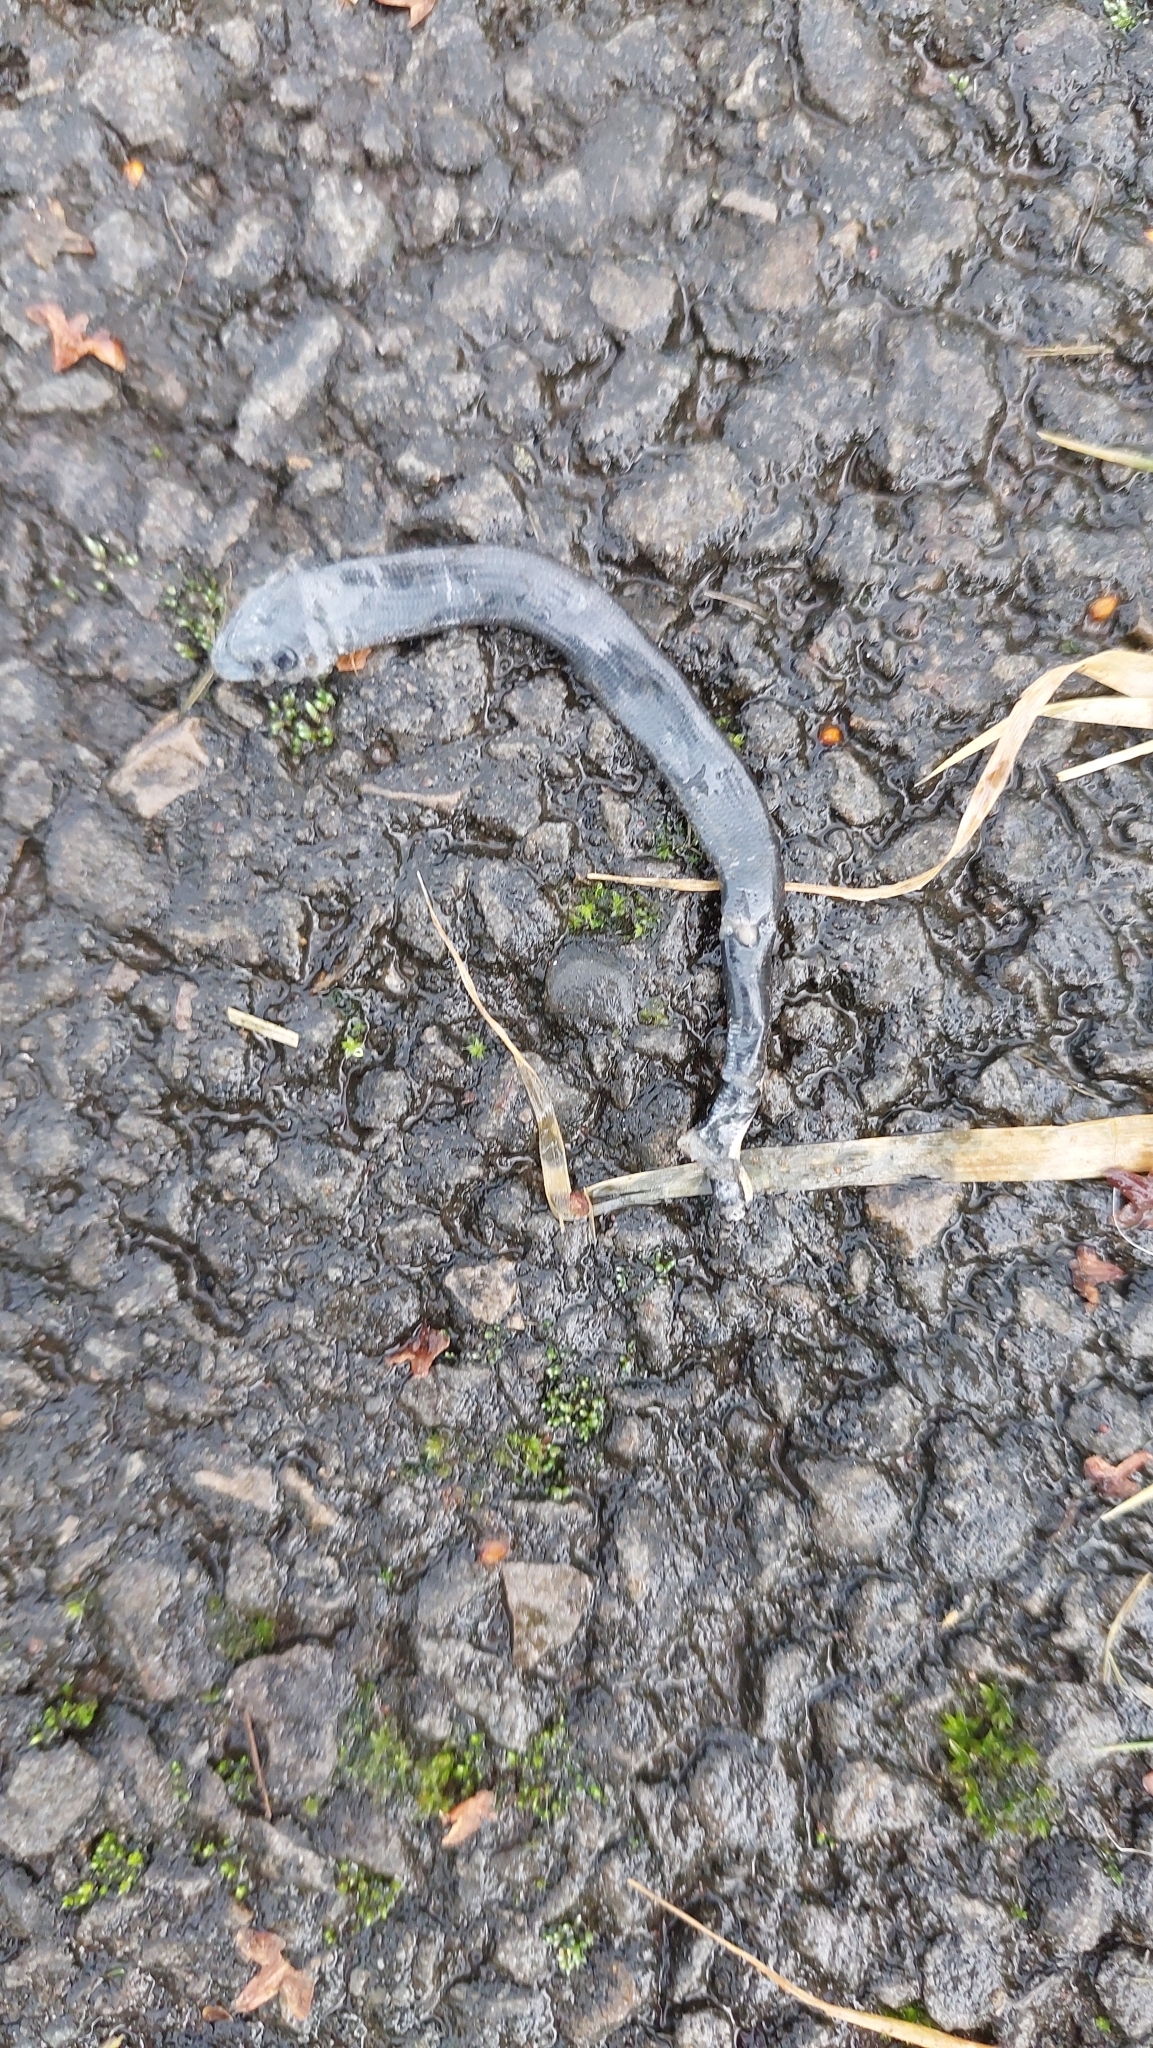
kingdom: Animalia
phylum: Chordata
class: Squamata
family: Anguidae
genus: Anguis
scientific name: Anguis fragilis
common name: Slow worm
